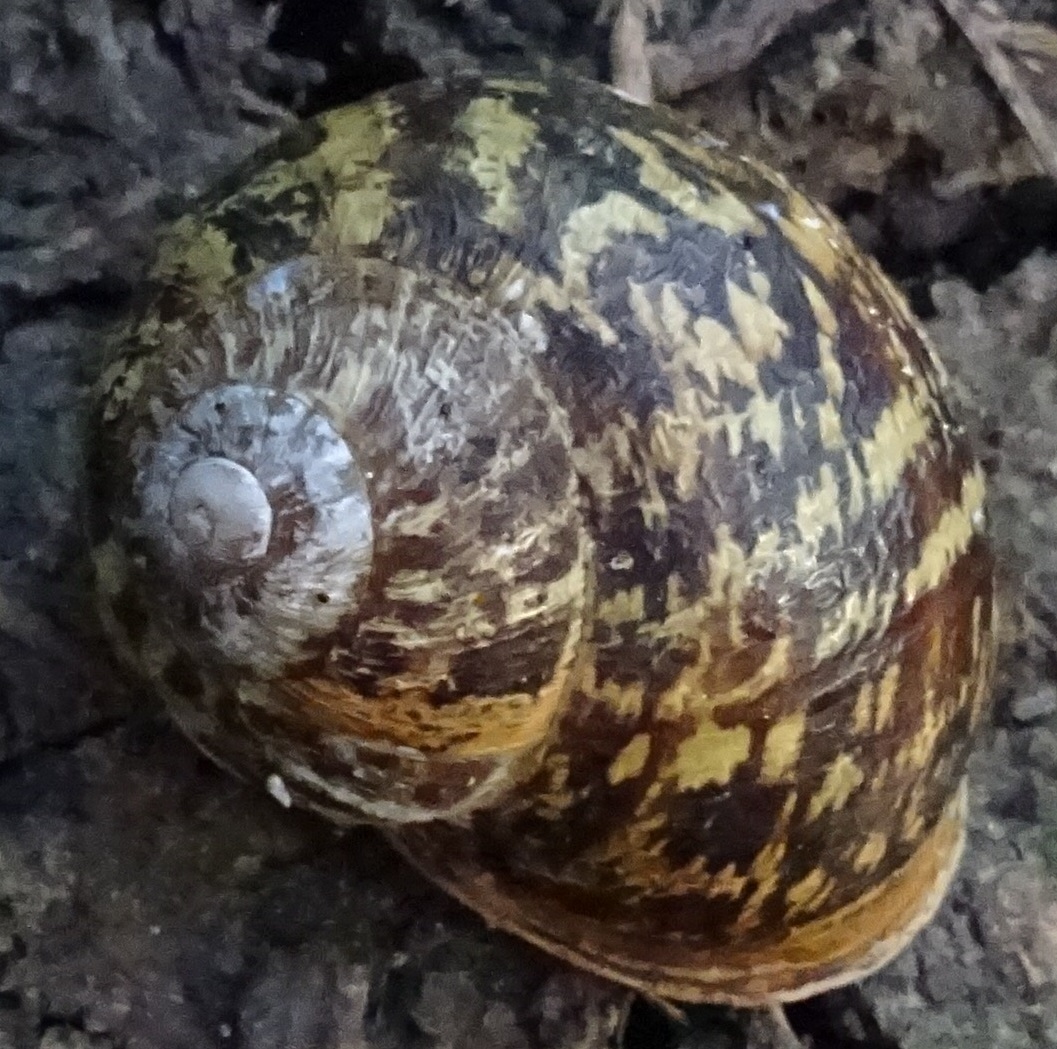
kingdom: Animalia
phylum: Mollusca
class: Gastropoda
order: Stylommatophora
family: Helicidae
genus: Cornu
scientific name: Cornu aspersum
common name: Brown garden snail
